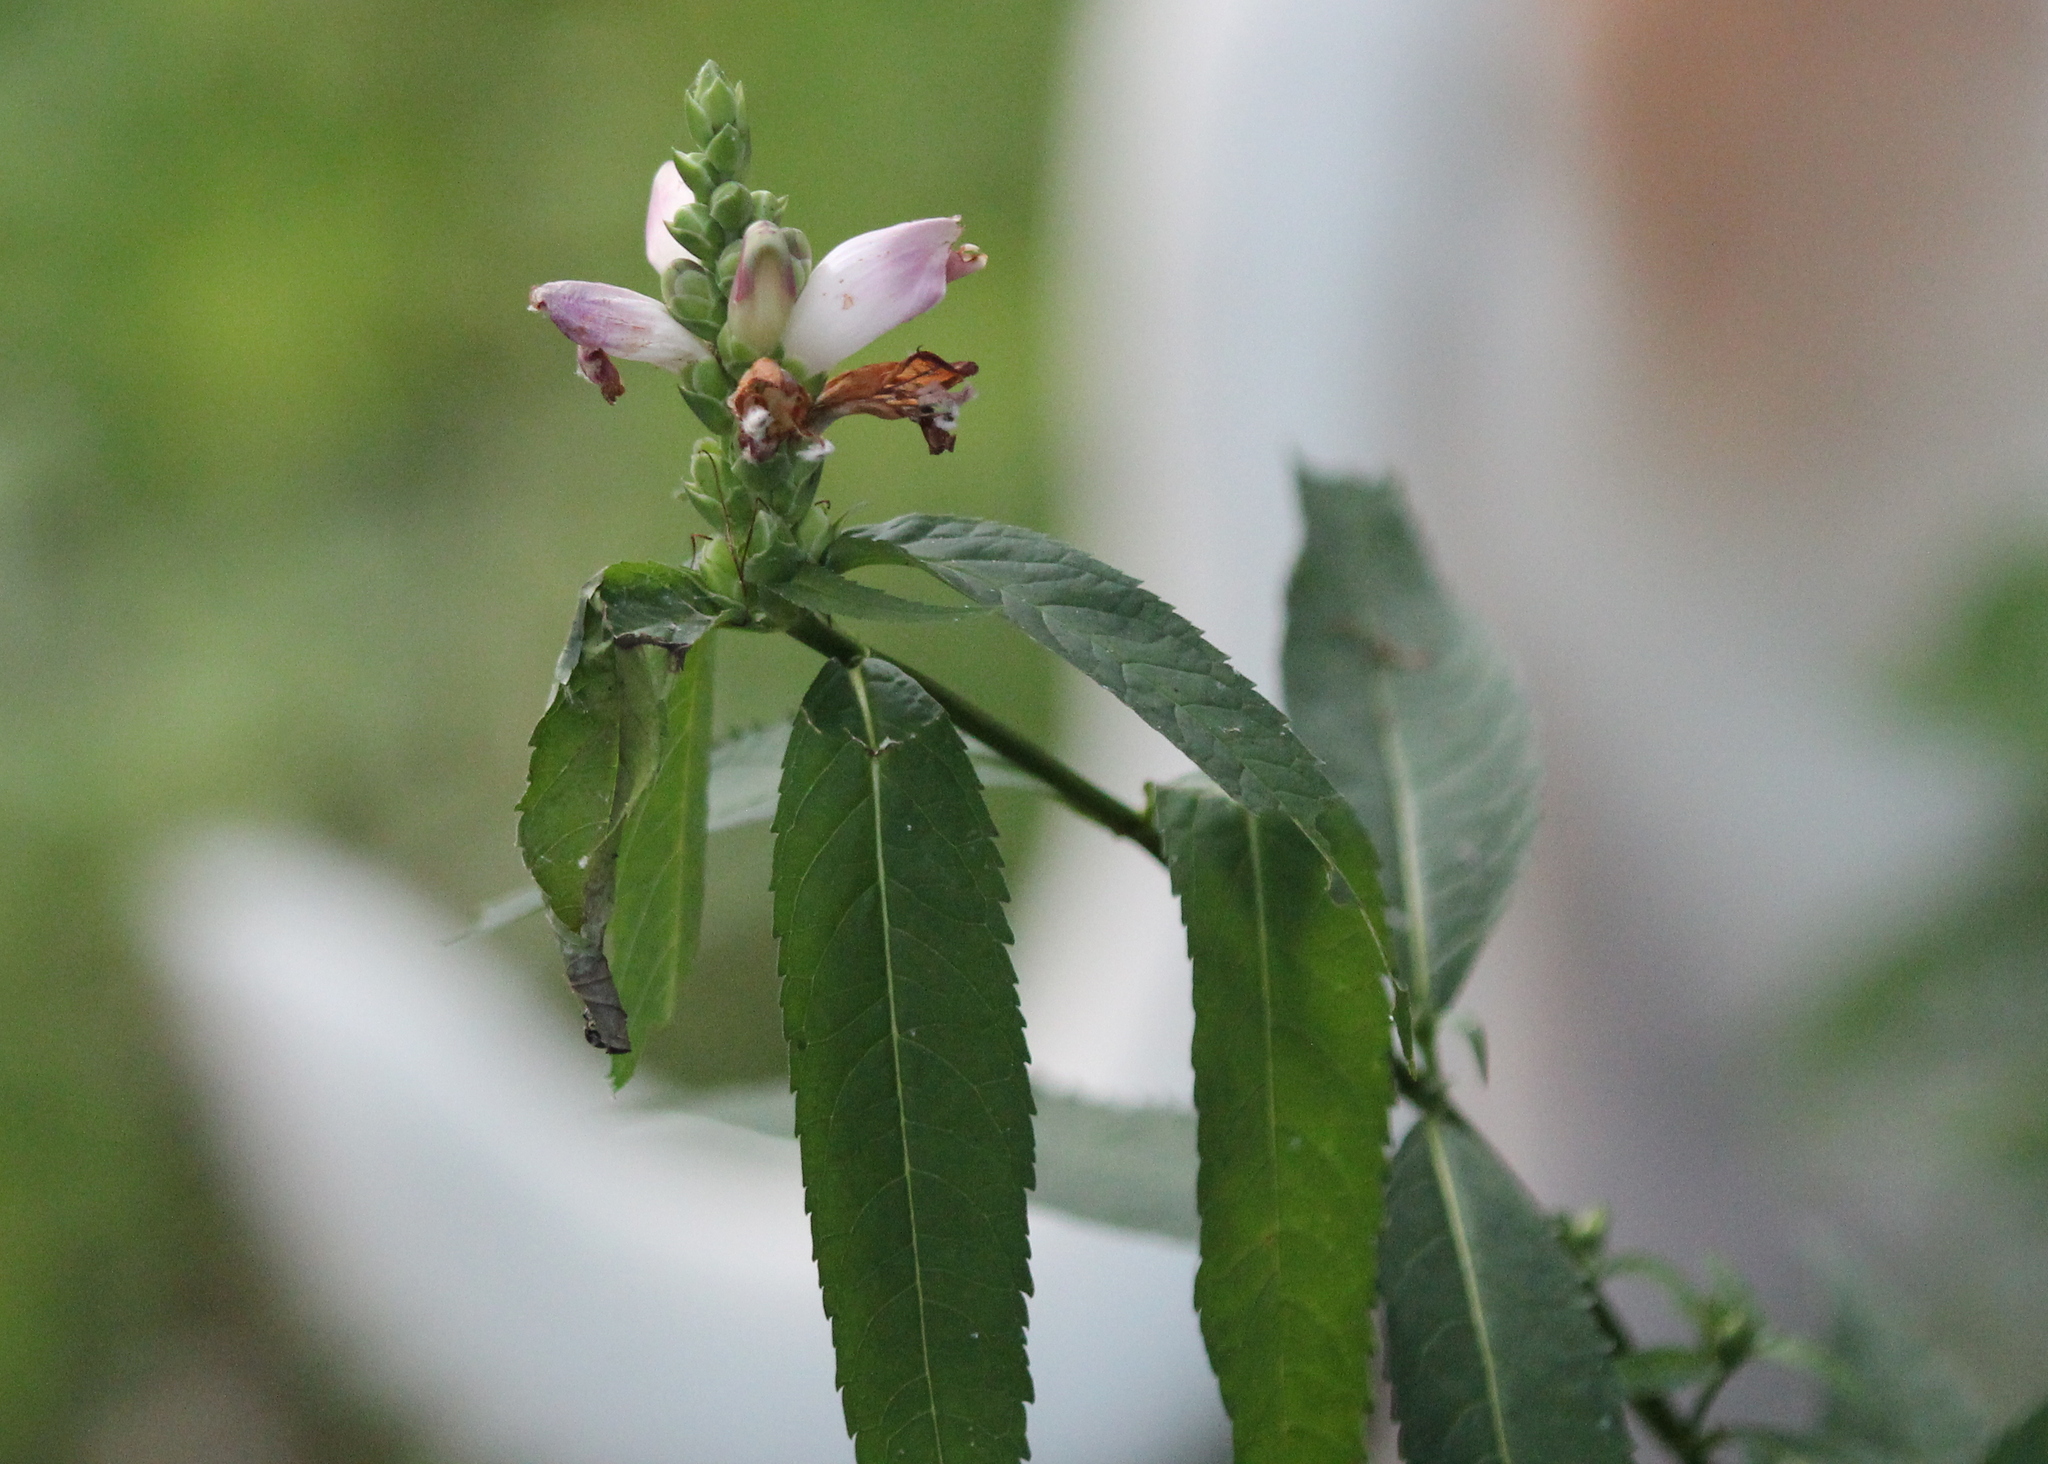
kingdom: Plantae
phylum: Tracheophyta
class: Magnoliopsida
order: Lamiales
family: Plantaginaceae
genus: Chelone
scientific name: Chelone glabra
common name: Snakehead
